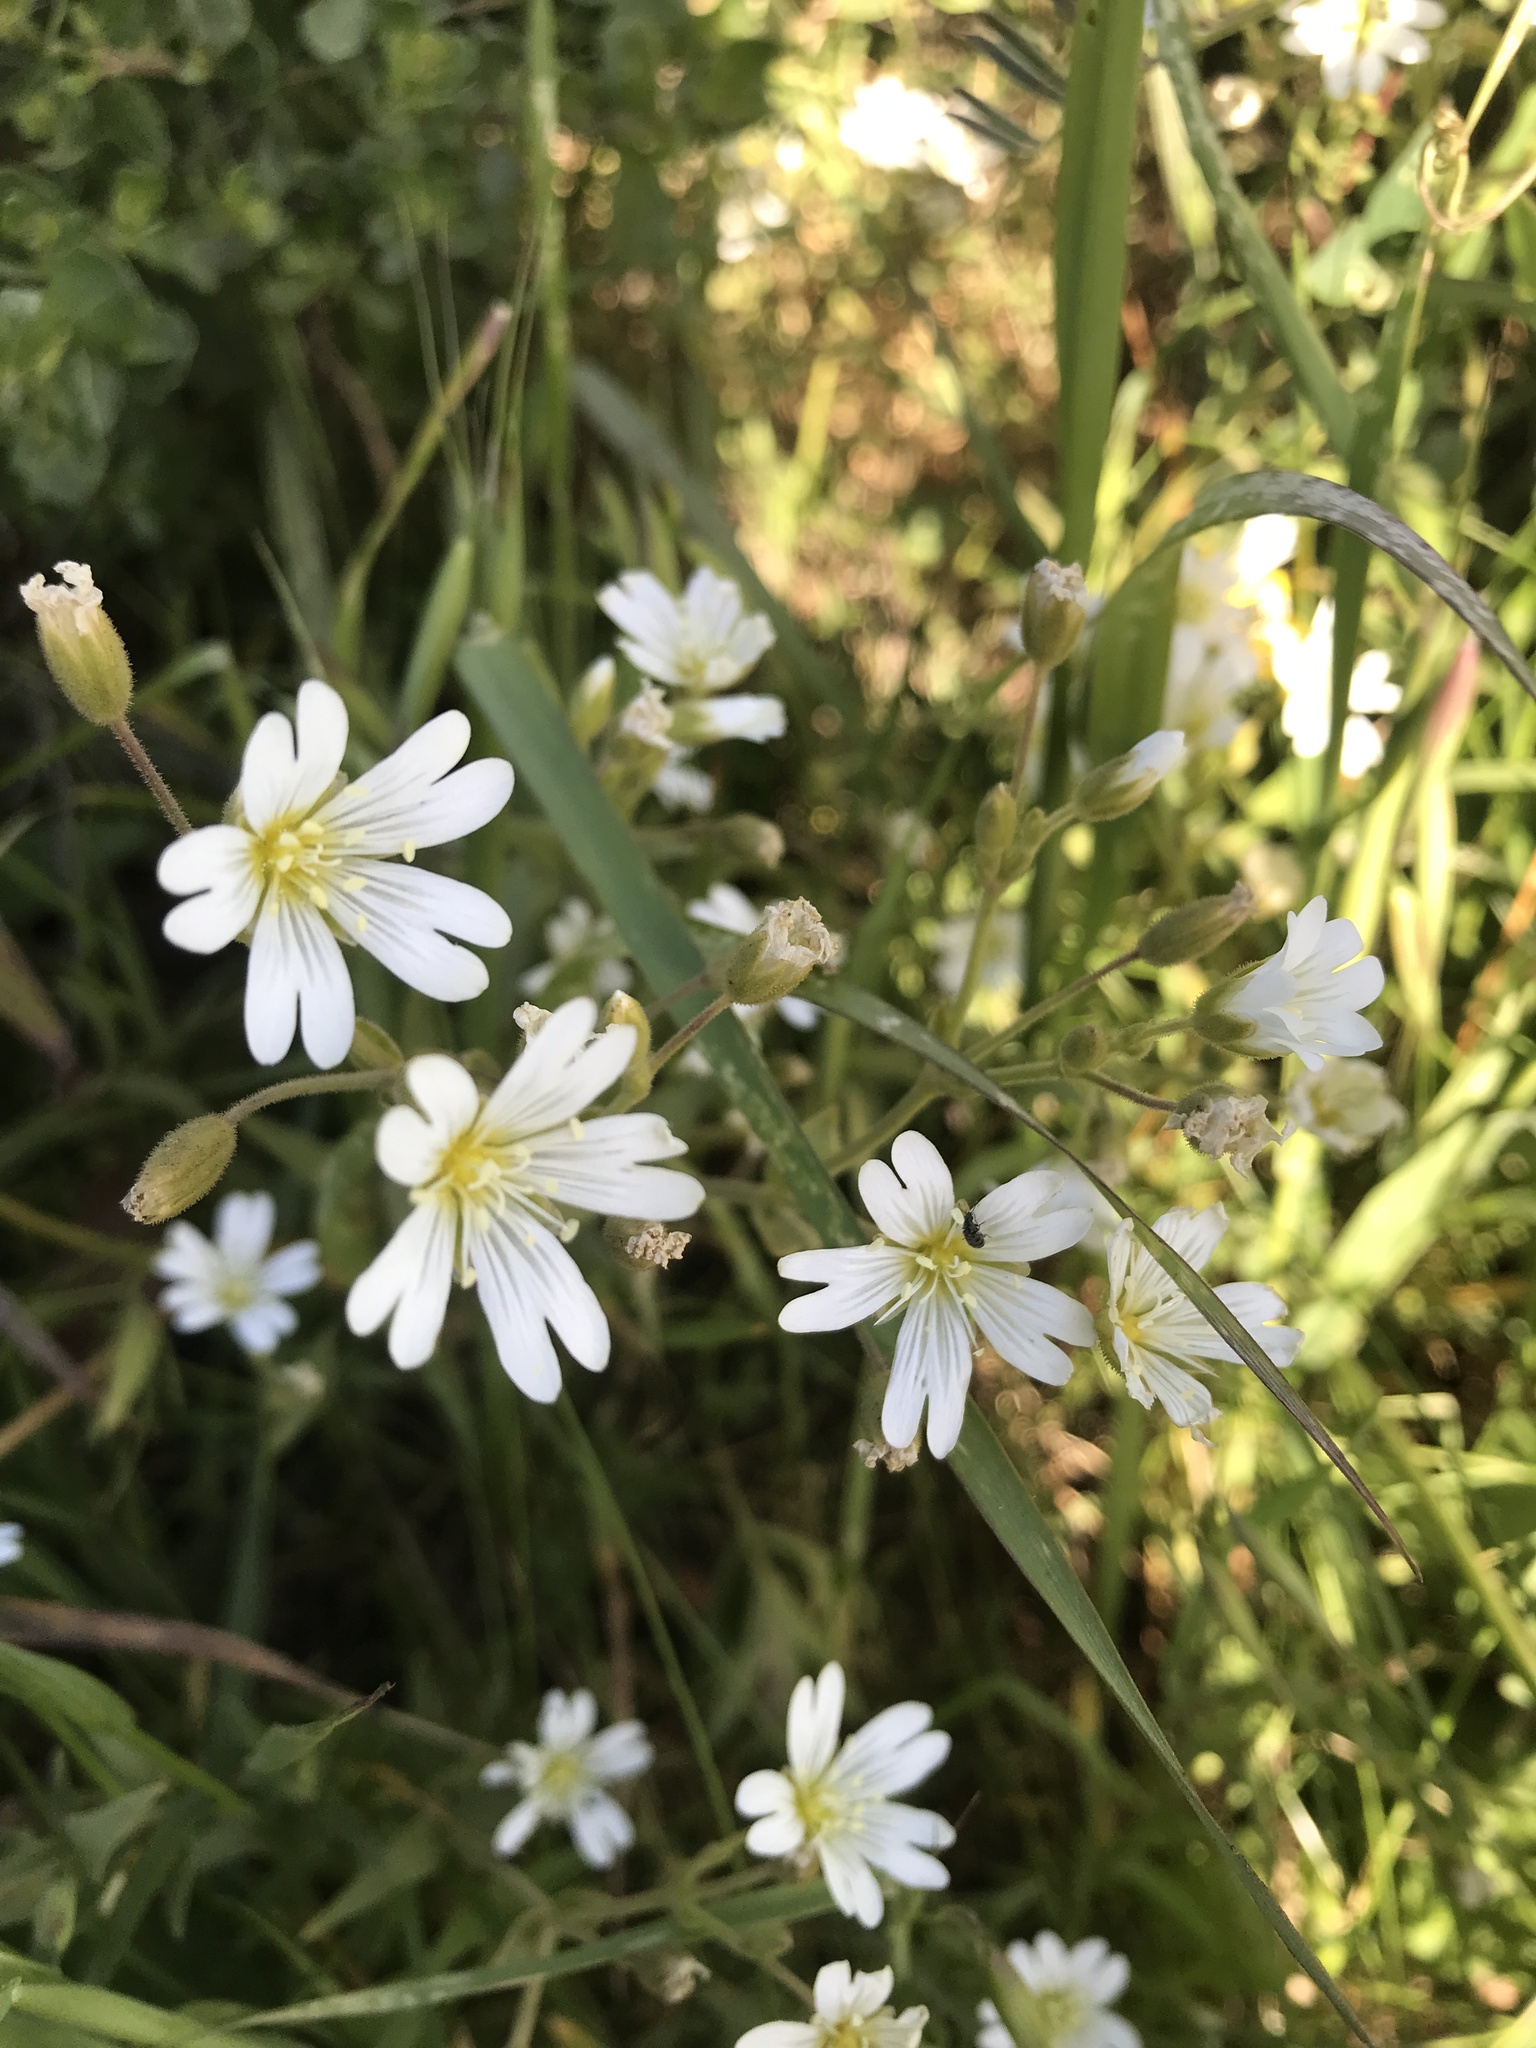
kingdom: Plantae
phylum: Tracheophyta
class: Magnoliopsida
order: Caryophyllales
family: Caryophyllaceae
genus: Cerastium
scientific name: Cerastium arvense
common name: Field mouse-ear
